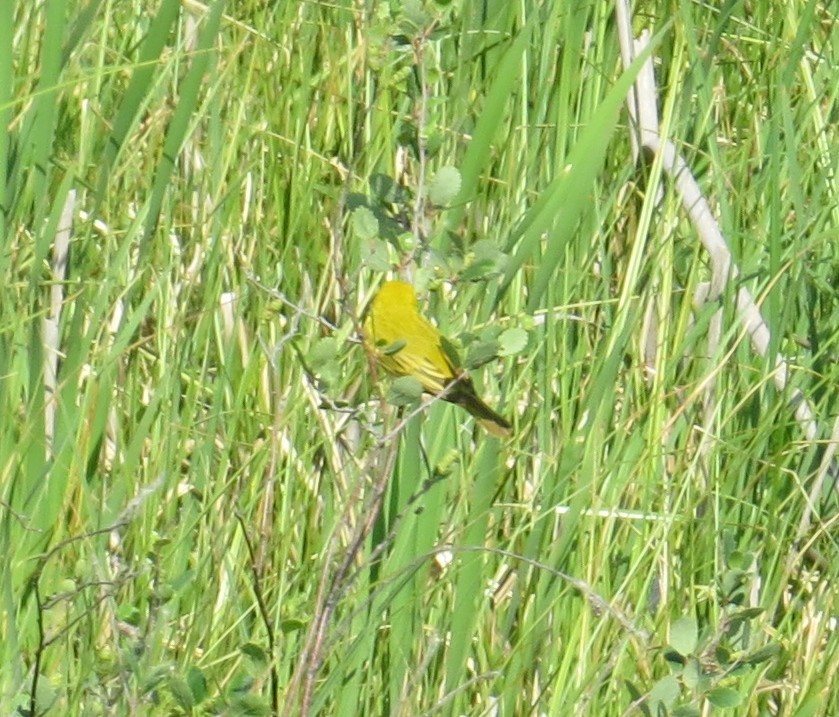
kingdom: Animalia
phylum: Chordata
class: Aves
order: Passeriformes
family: Parulidae
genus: Setophaga
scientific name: Setophaga petechia
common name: Yellow warbler
